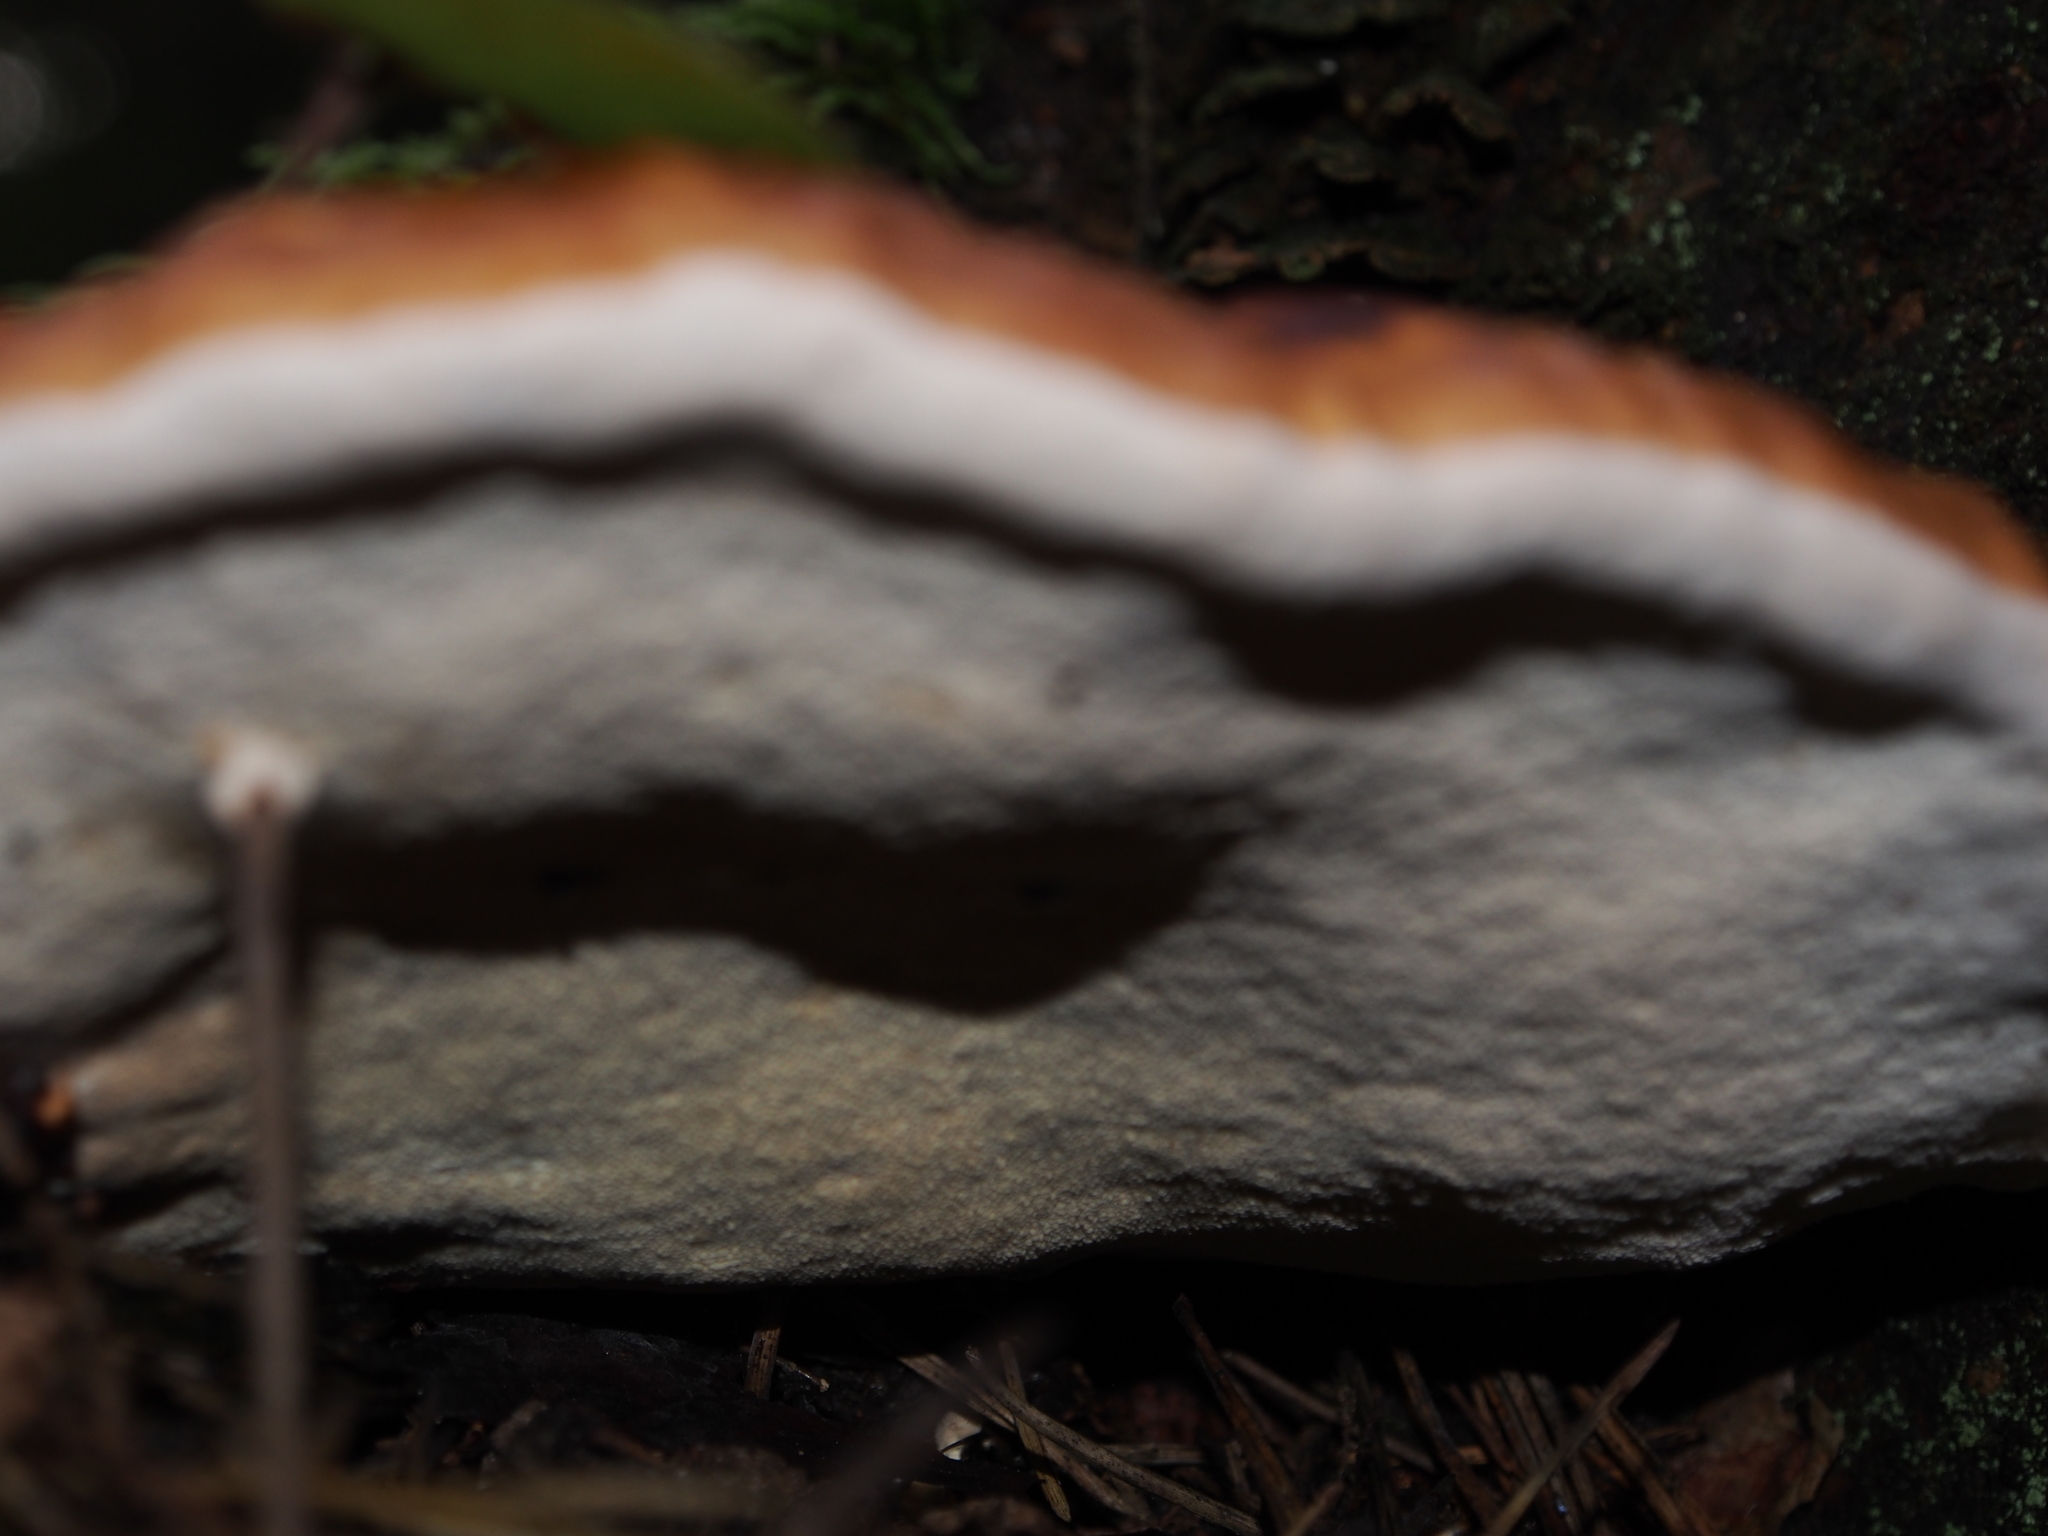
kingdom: Fungi
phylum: Basidiomycota
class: Agaricomycetes
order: Polyporales
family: Fomitopsidaceae
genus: Fomitopsis
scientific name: Fomitopsis pinicola
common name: Red-belted bracket
